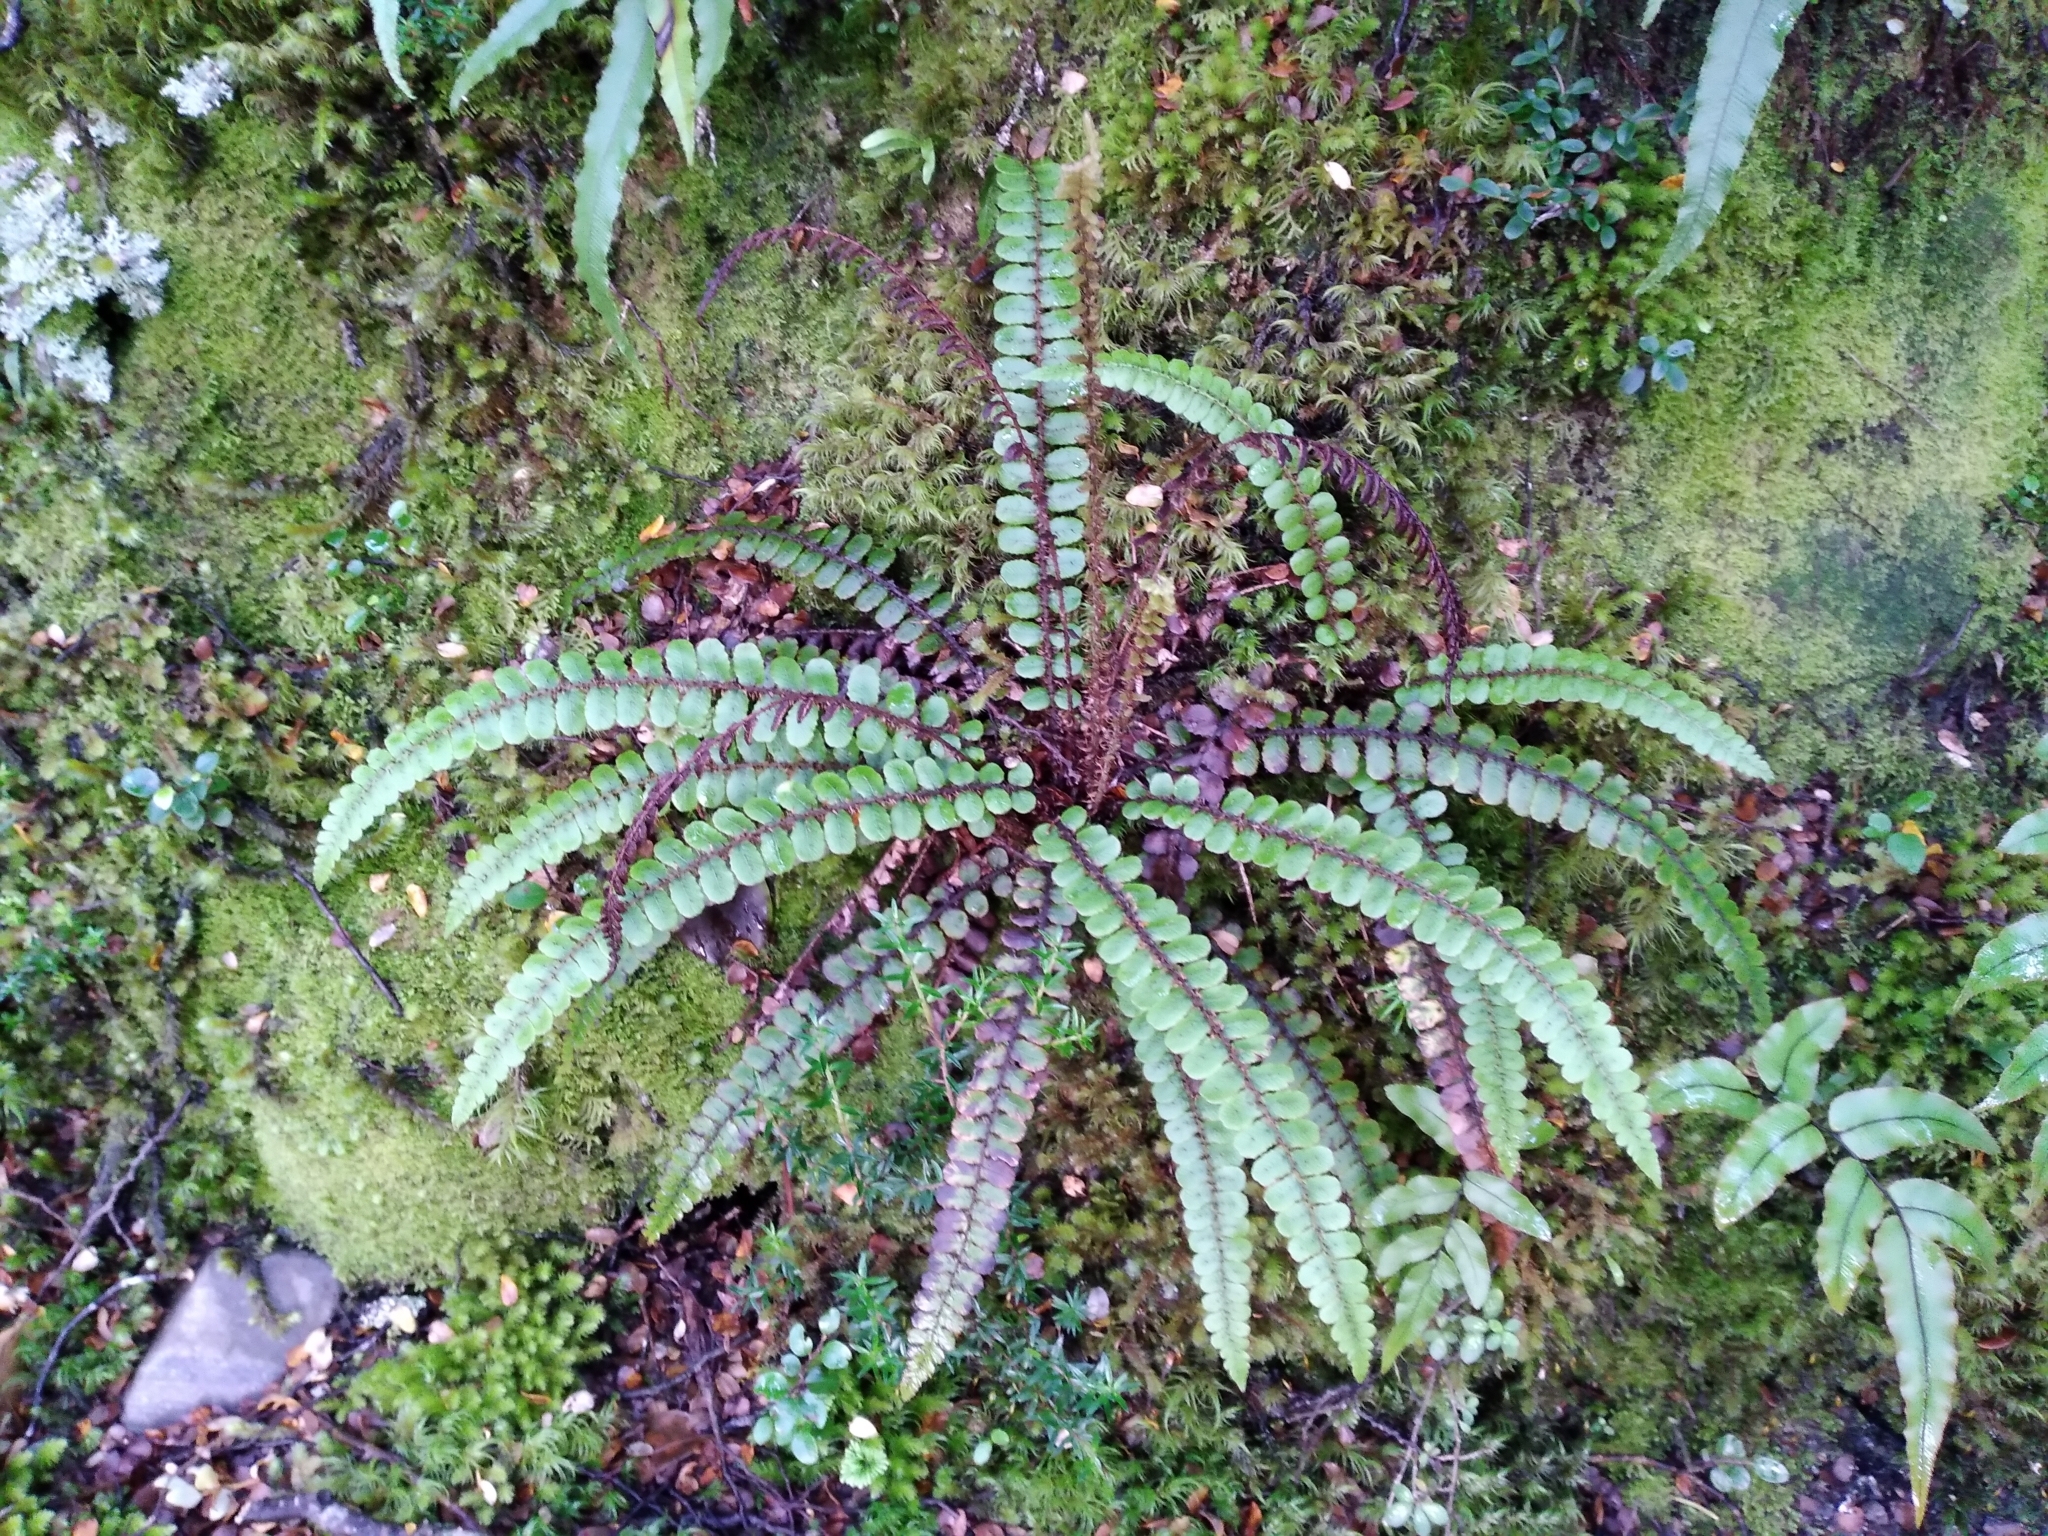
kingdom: Plantae
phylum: Tracheophyta
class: Polypodiopsida
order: Polypodiales
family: Blechnaceae
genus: Cranfillia
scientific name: Cranfillia fluviatilis
